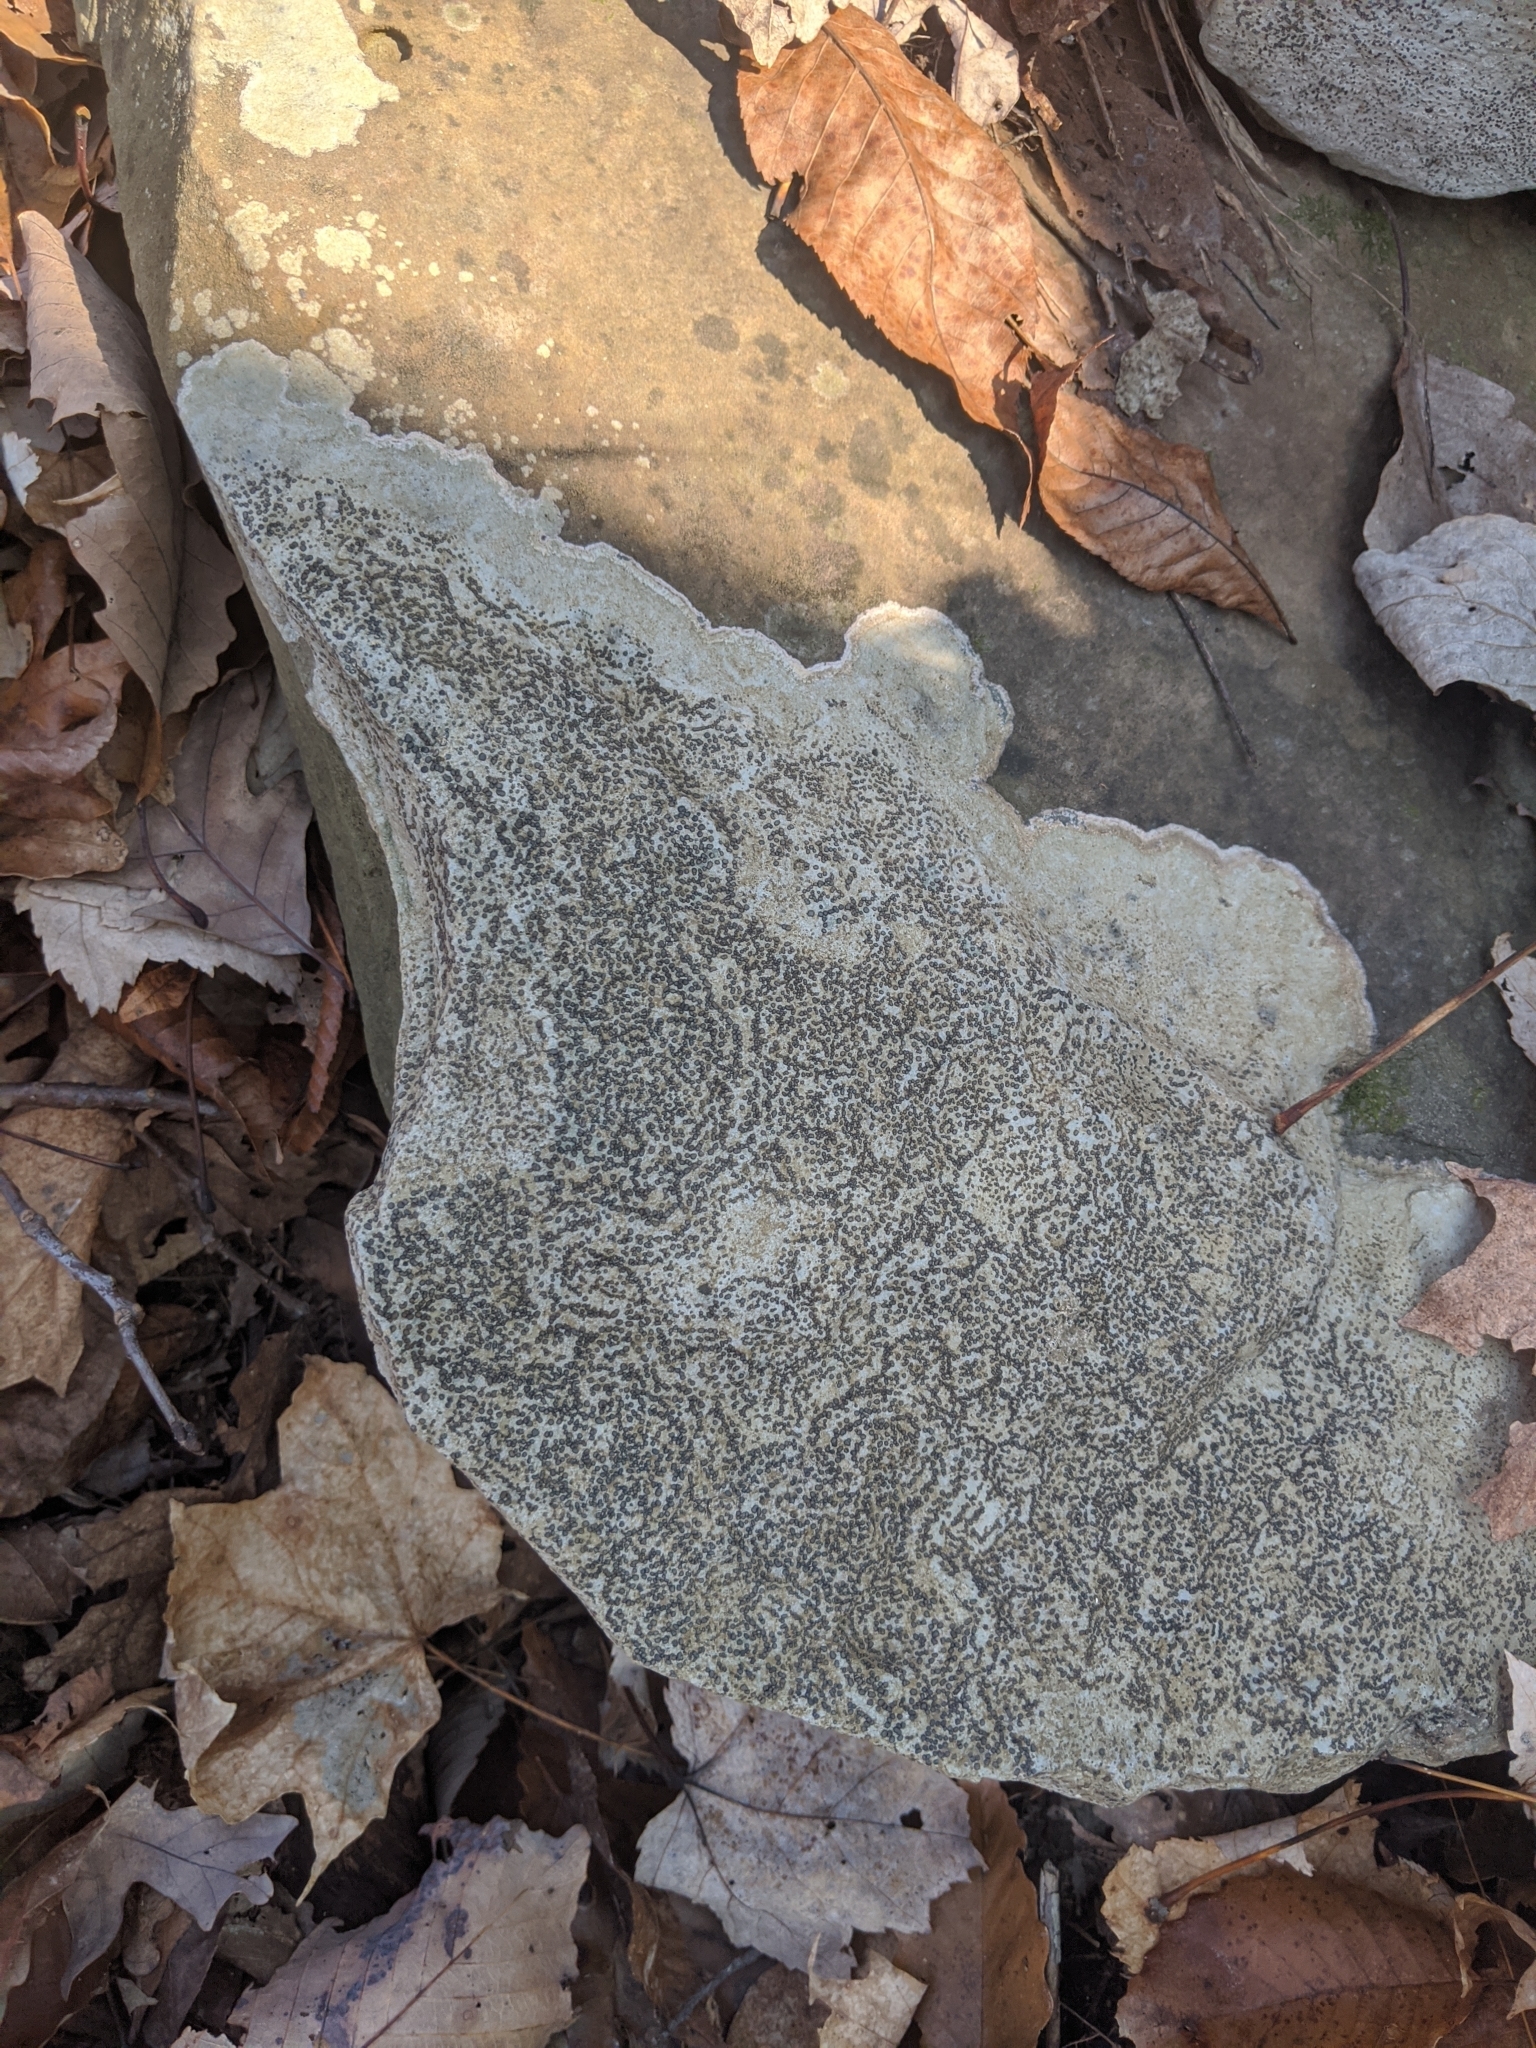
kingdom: Fungi
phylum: Ascomycota
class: Lecanoromycetes
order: Lecideales
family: Lecideaceae
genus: Porpidia
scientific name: Porpidia albocaerulescens
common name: Smokey-eyed boulder lichen
